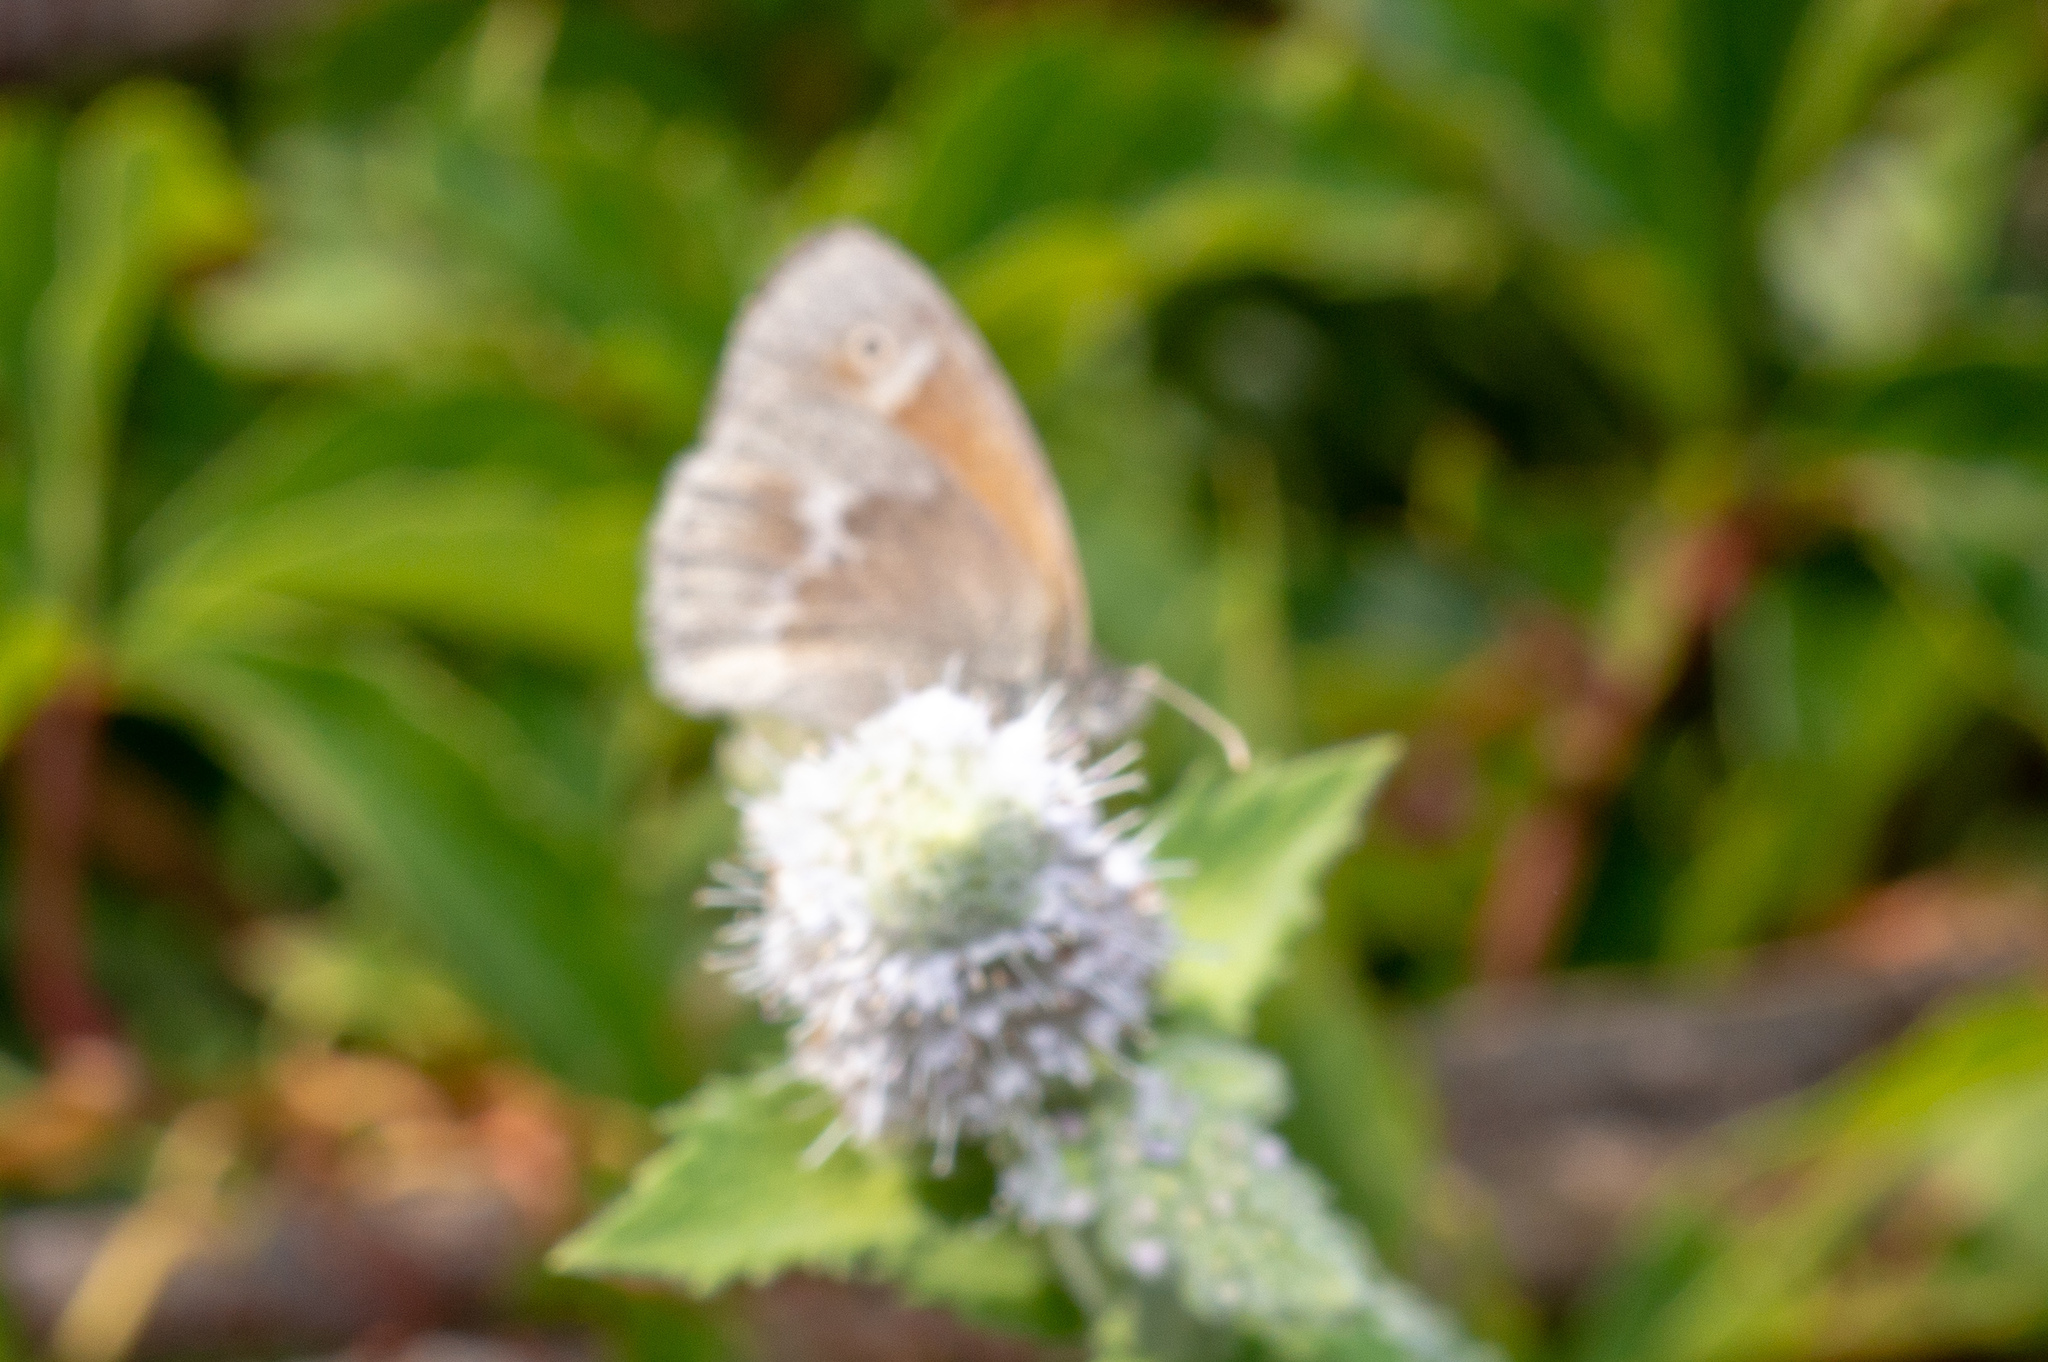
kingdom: Animalia
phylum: Arthropoda
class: Insecta
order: Lepidoptera
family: Nymphalidae
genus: Coenonympha
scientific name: Coenonympha california
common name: Common ringlet
